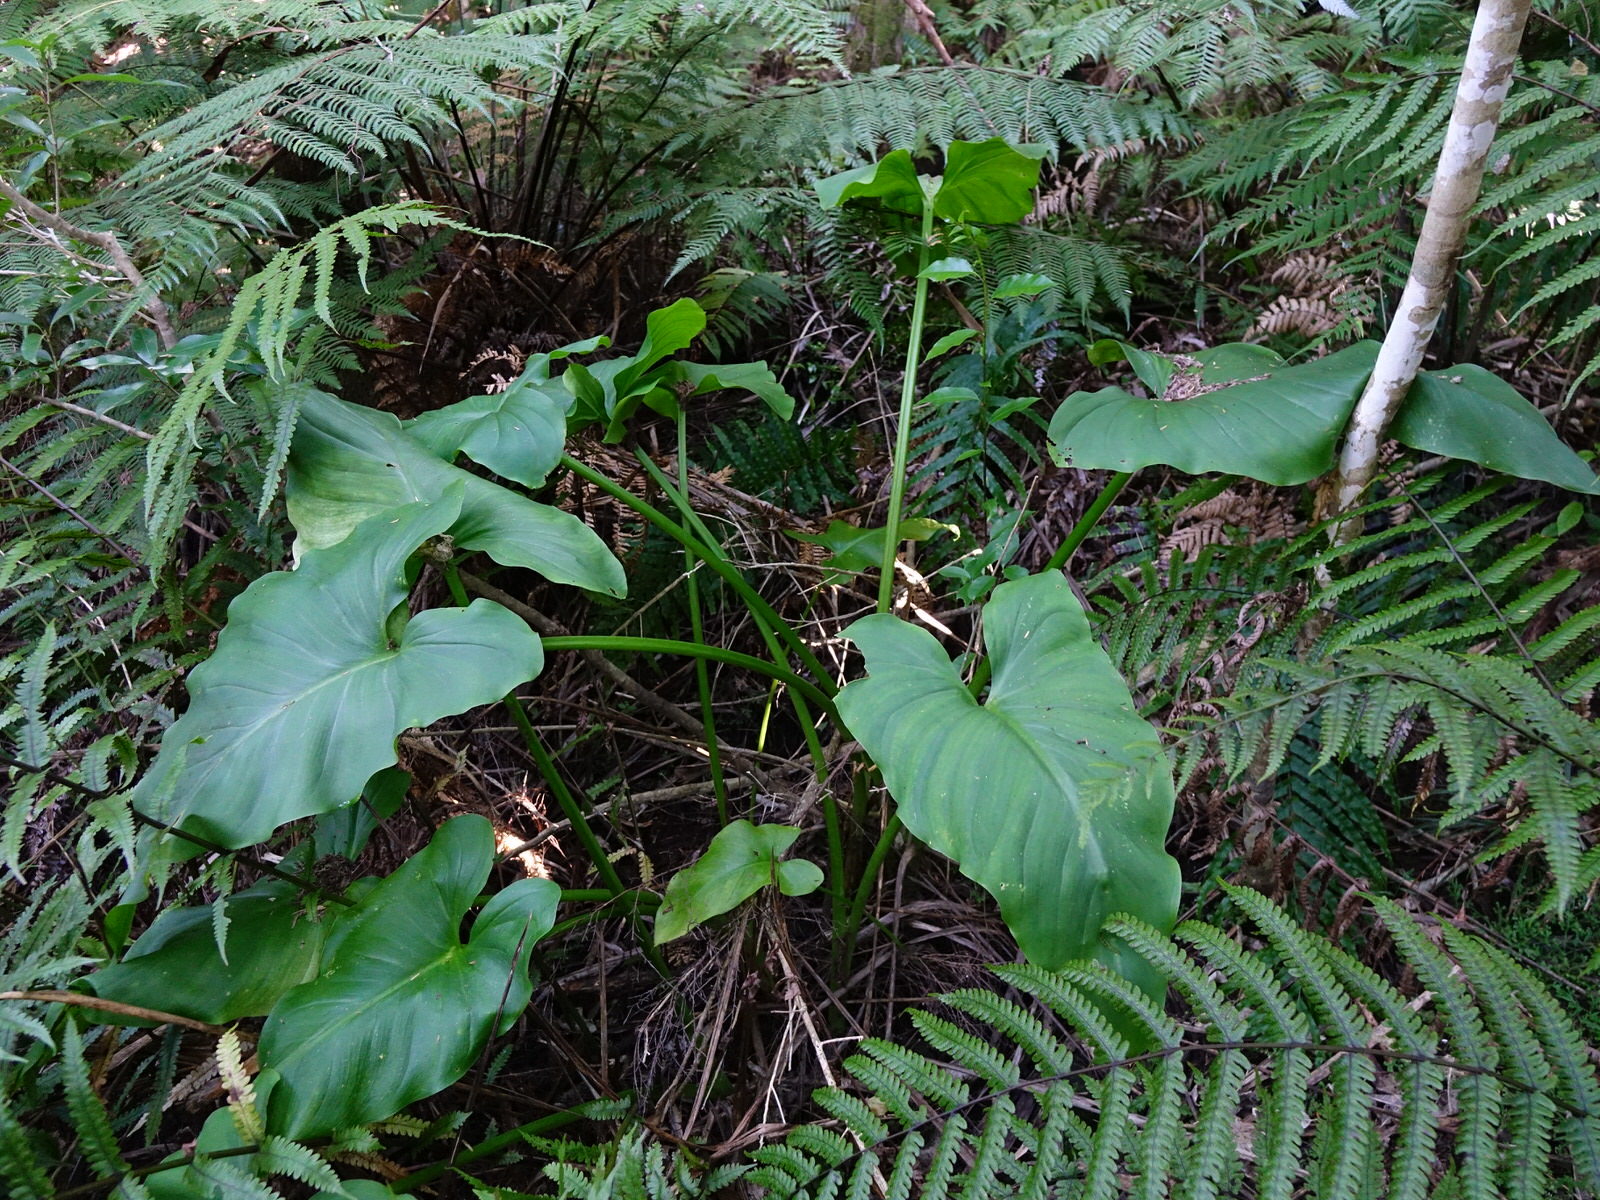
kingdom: Plantae
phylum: Tracheophyta
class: Liliopsida
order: Alismatales
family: Araceae
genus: Zantedeschia
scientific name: Zantedeschia aethiopica
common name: Altar-lily
